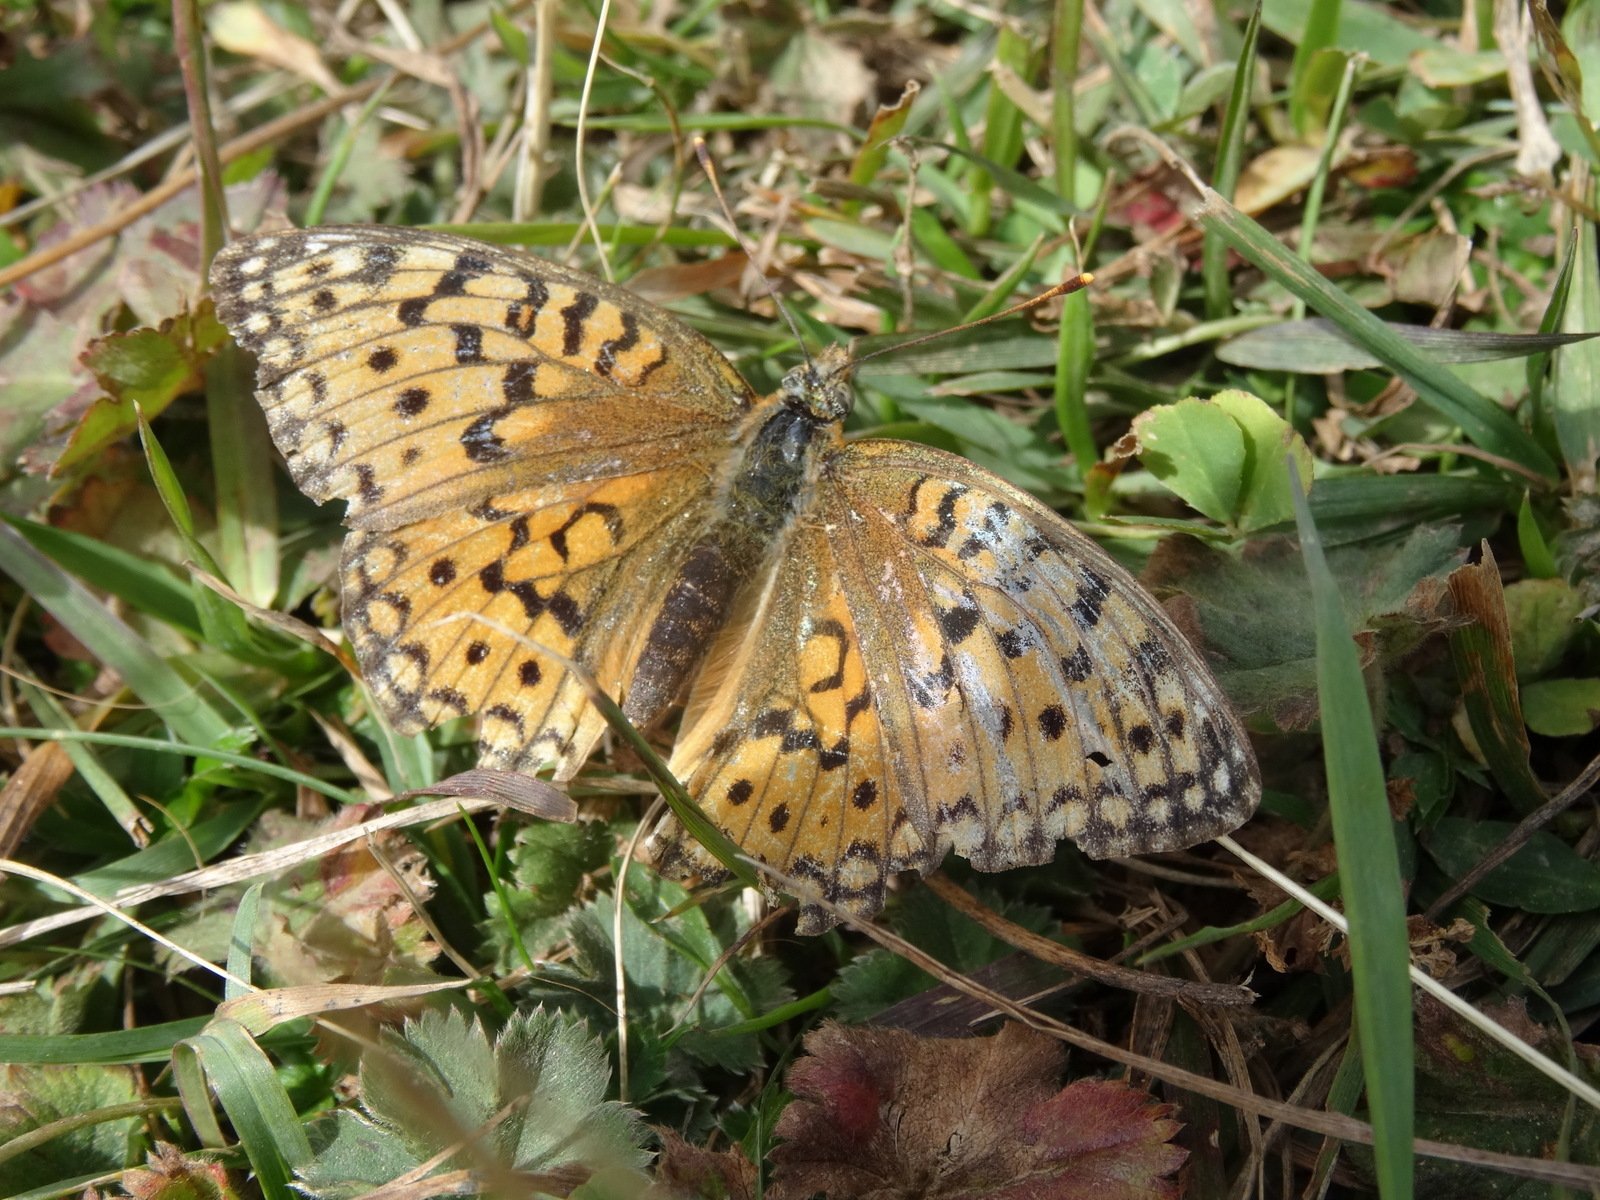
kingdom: Animalia
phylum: Arthropoda
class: Insecta
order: Lepidoptera
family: Nymphalidae
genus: Fabriciana
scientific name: Fabriciana niobe
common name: Niobe fritillary
